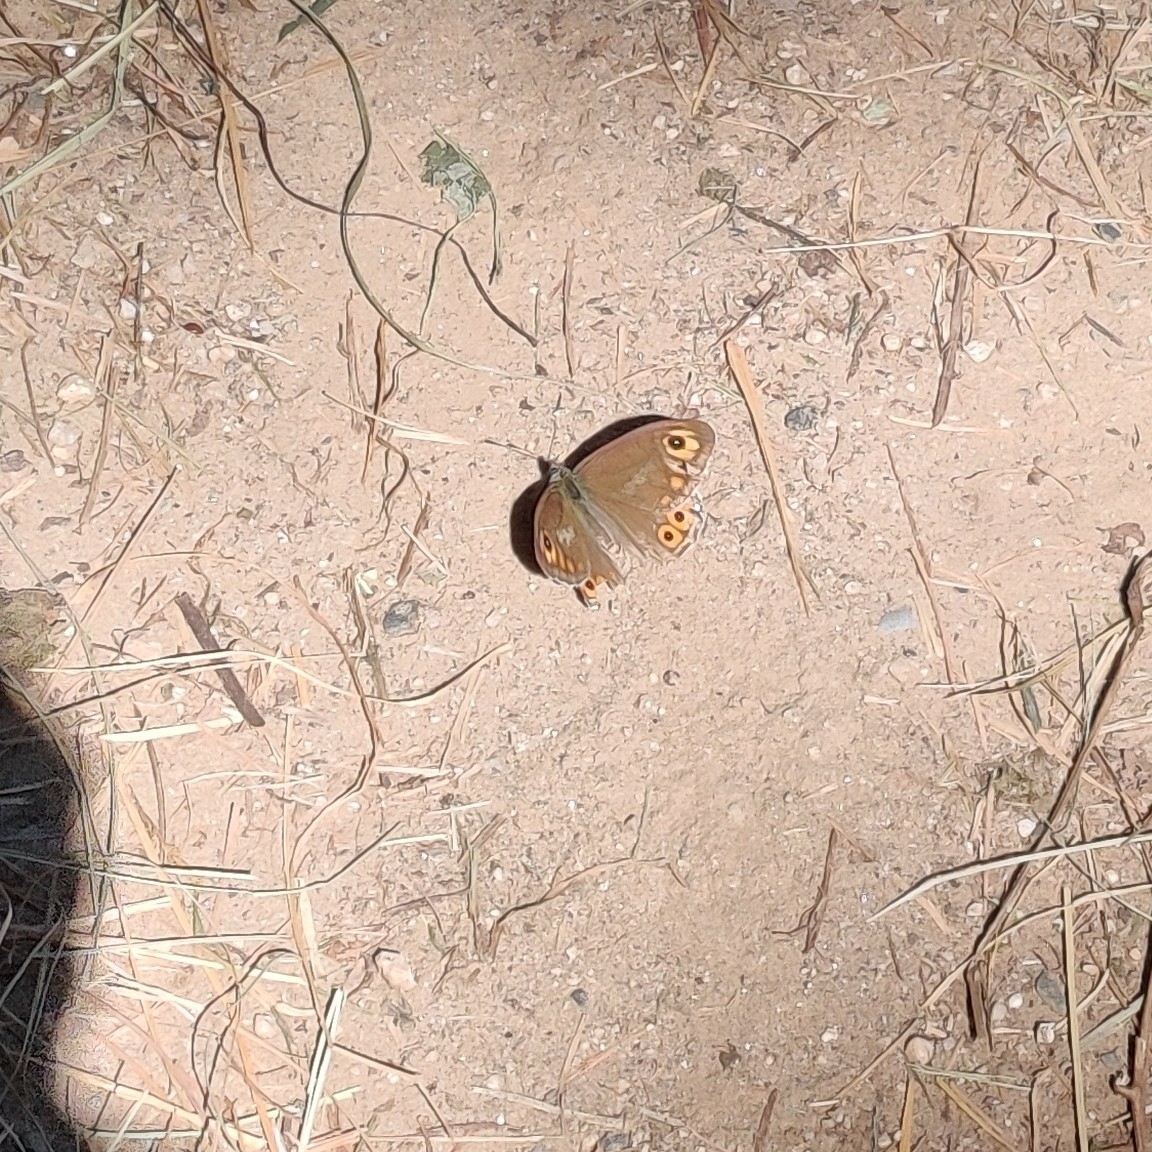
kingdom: Animalia
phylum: Arthropoda
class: Insecta
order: Lepidoptera
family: Nymphalidae
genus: Pararge
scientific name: Pararge Lasiommata schakra
